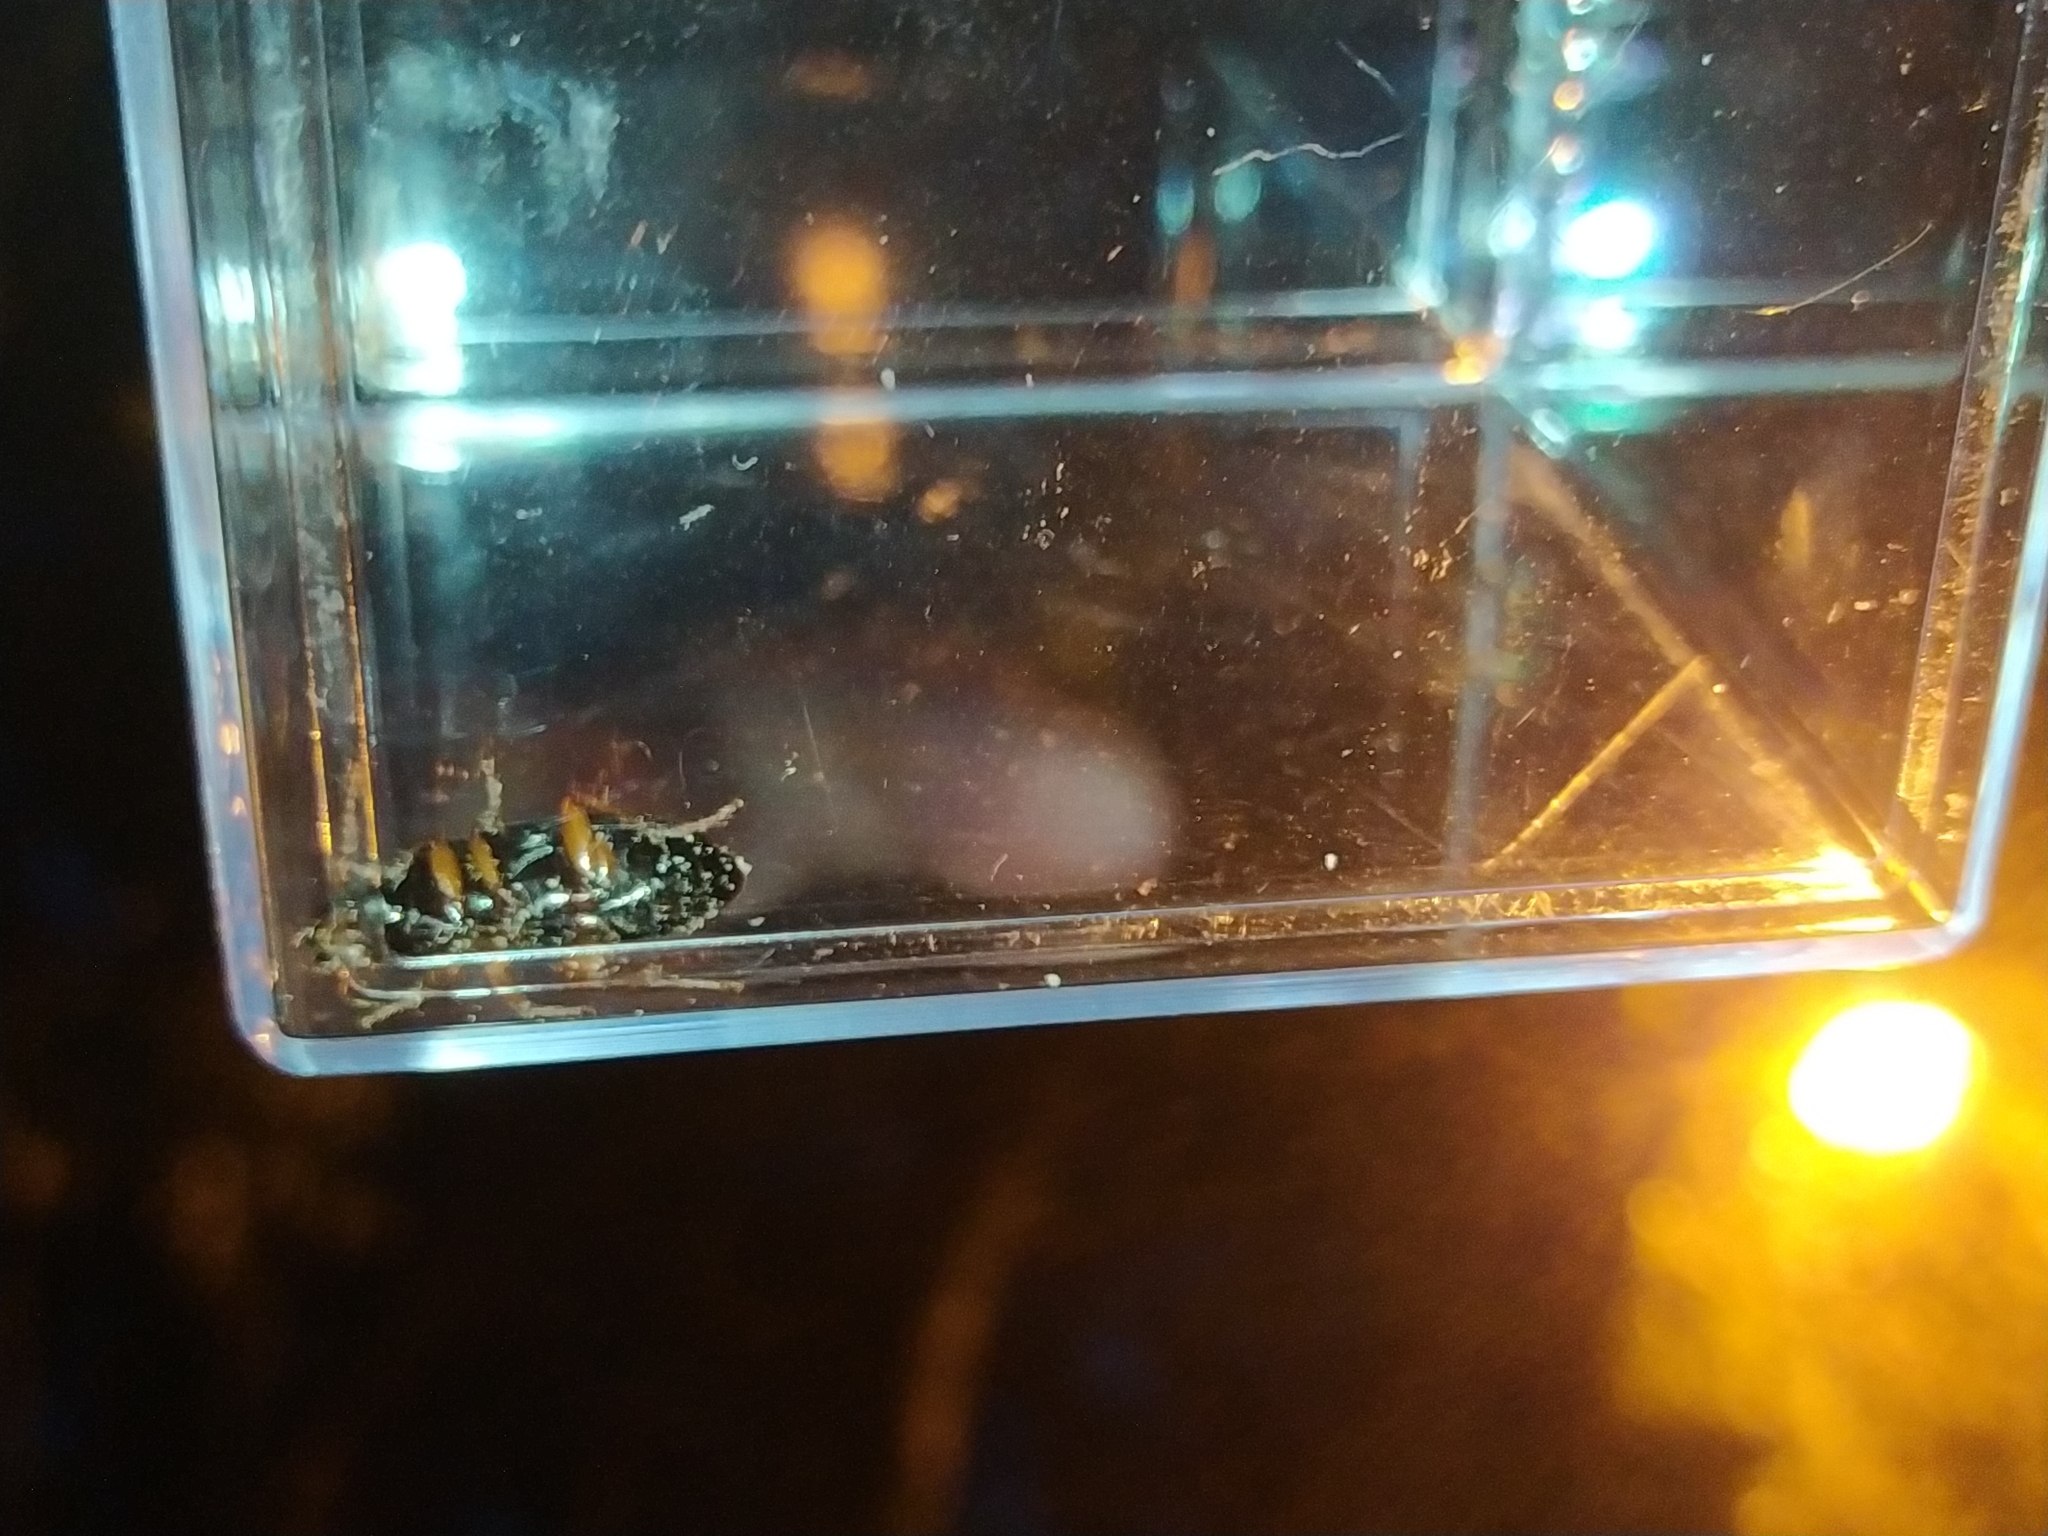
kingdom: Animalia
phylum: Arthropoda
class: Insecta
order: Coleoptera
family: Carabidae
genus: Harpalus
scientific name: Harpalus rufipes
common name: Strawberry harp ground beetle
